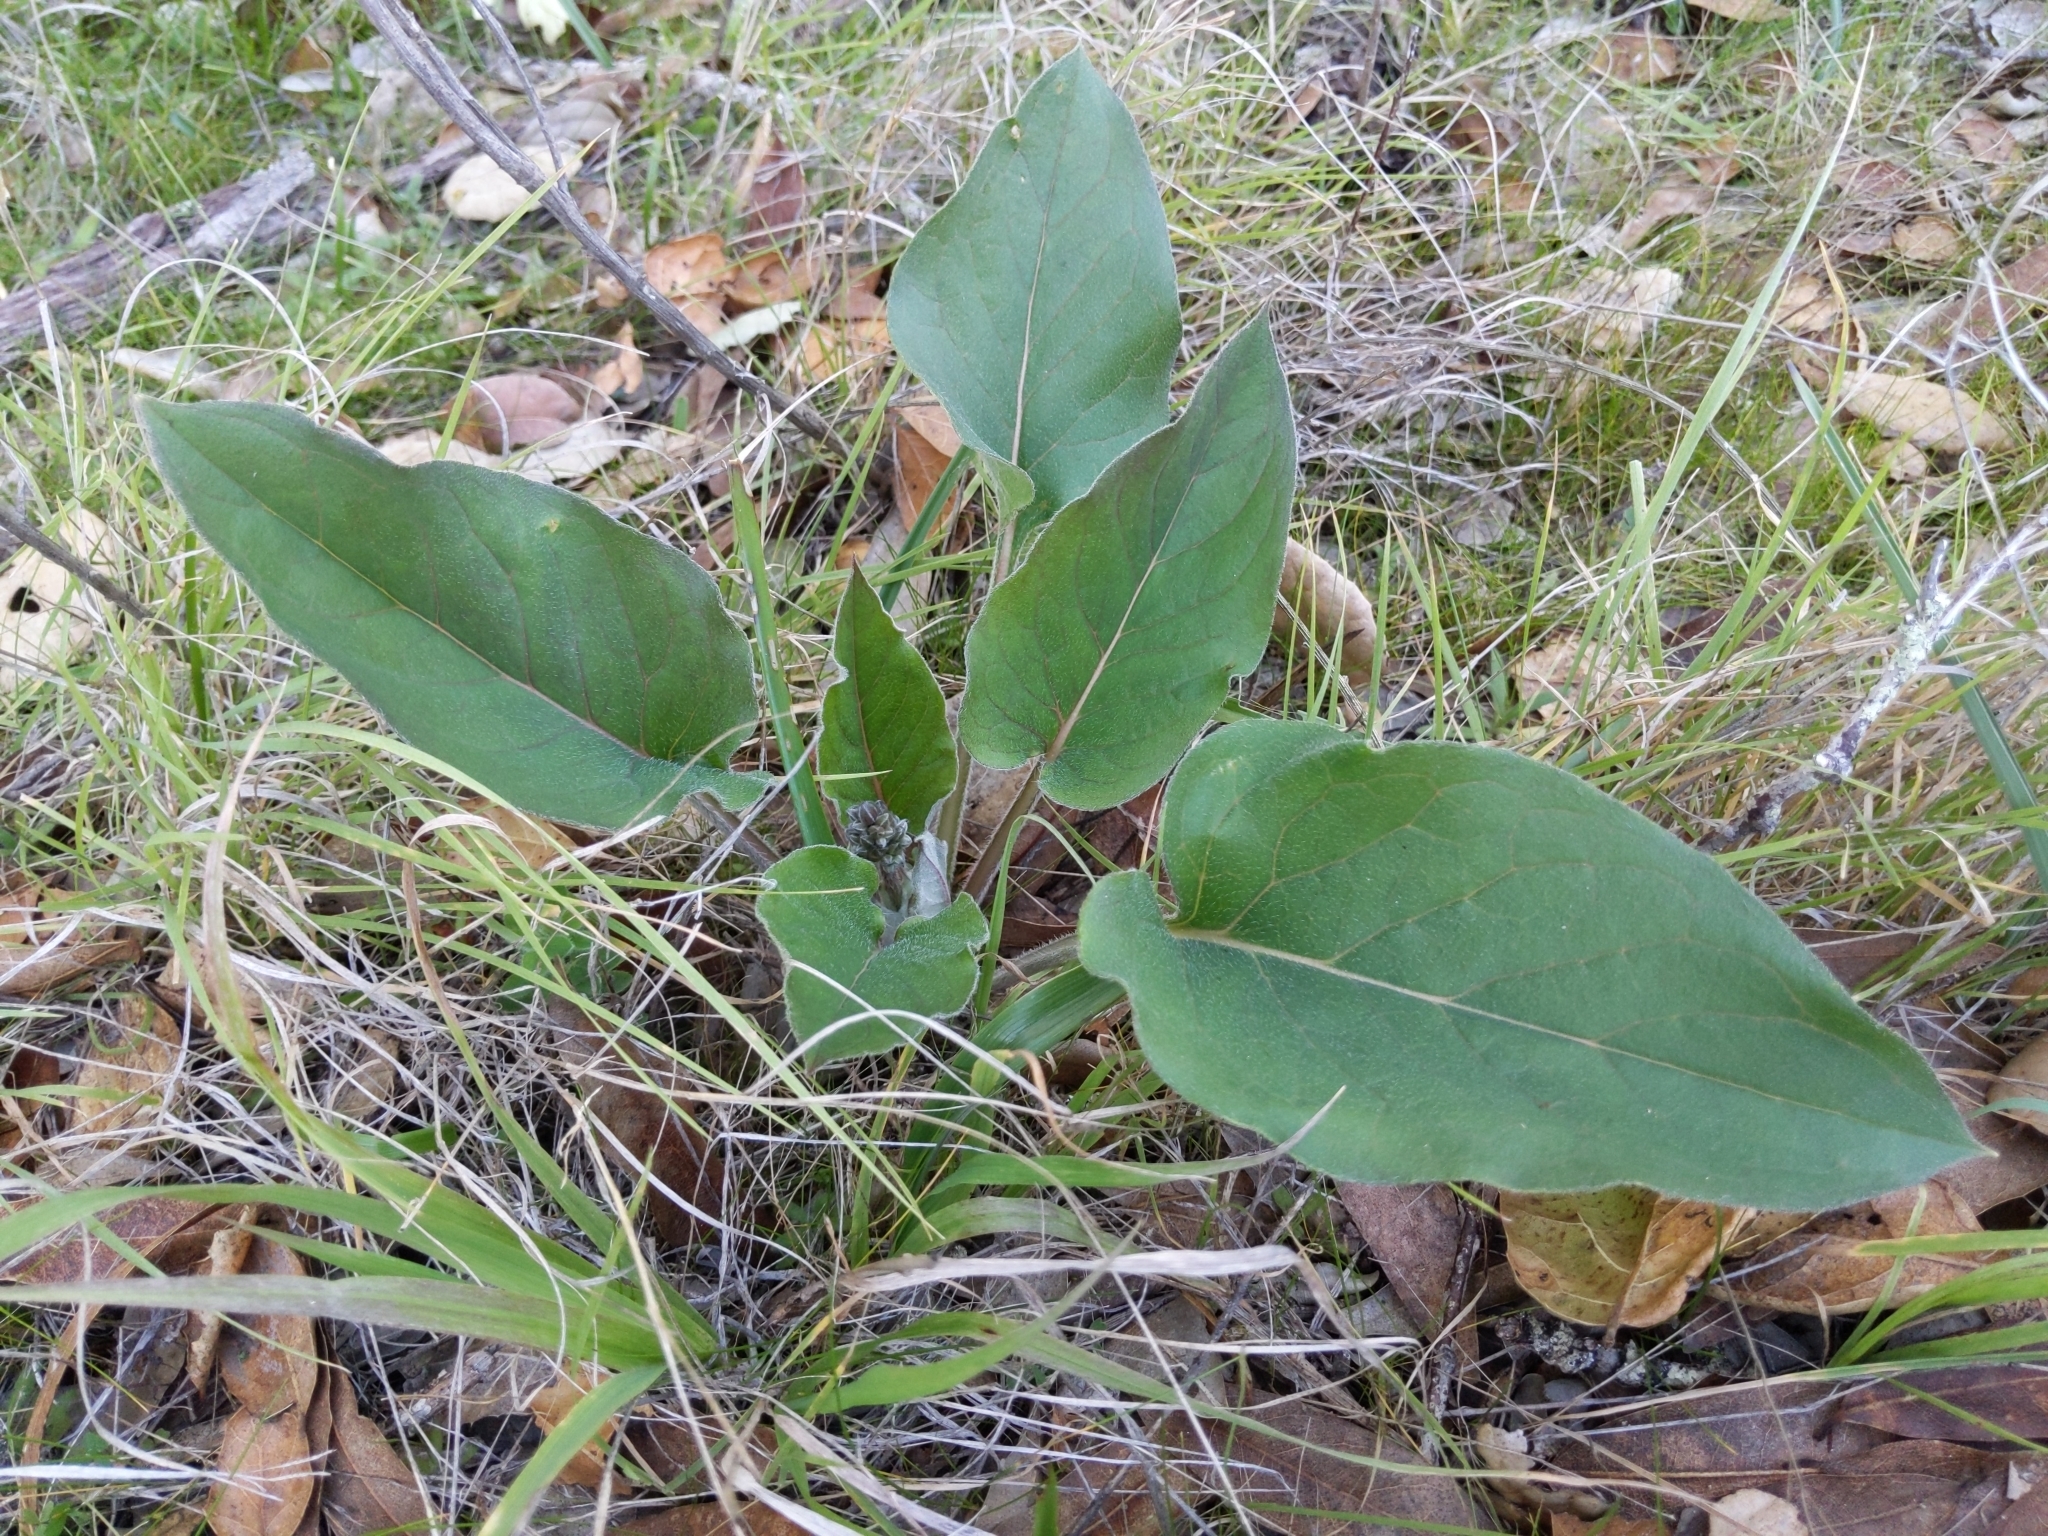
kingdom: Plantae
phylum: Tracheophyta
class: Magnoliopsida
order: Boraginales
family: Boraginaceae
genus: Adelinia
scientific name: Adelinia grande
